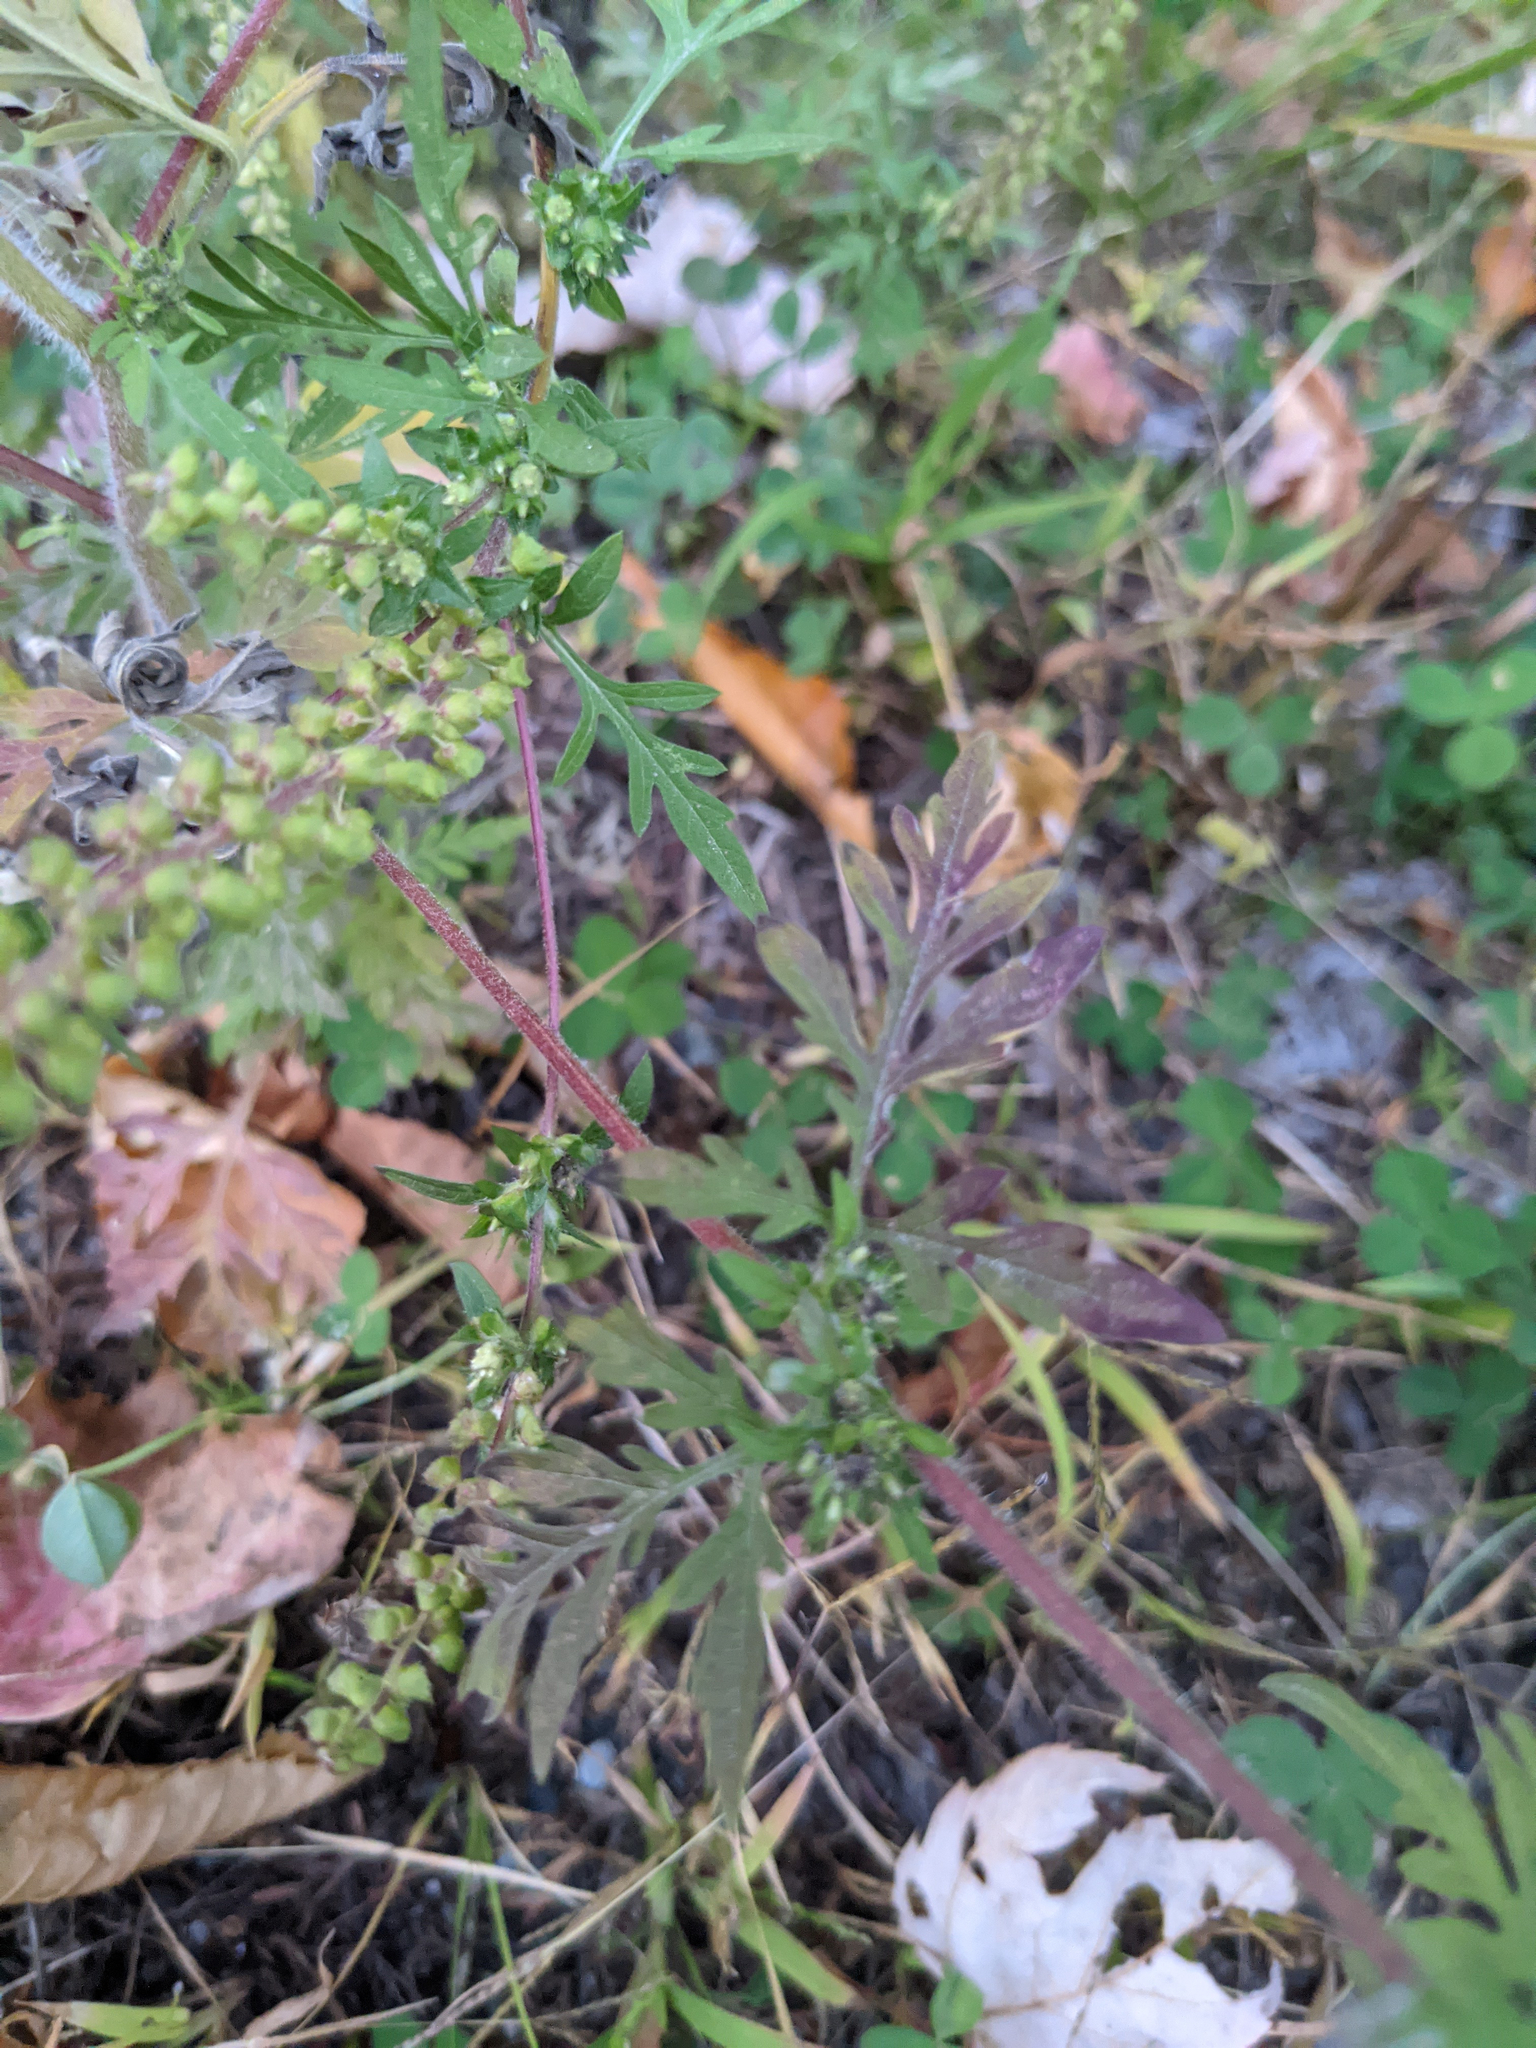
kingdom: Plantae
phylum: Tracheophyta
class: Magnoliopsida
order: Asterales
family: Asteraceae
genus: Ambrosia
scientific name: Ambrosia artemisiifolia
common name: Annual ragweed
